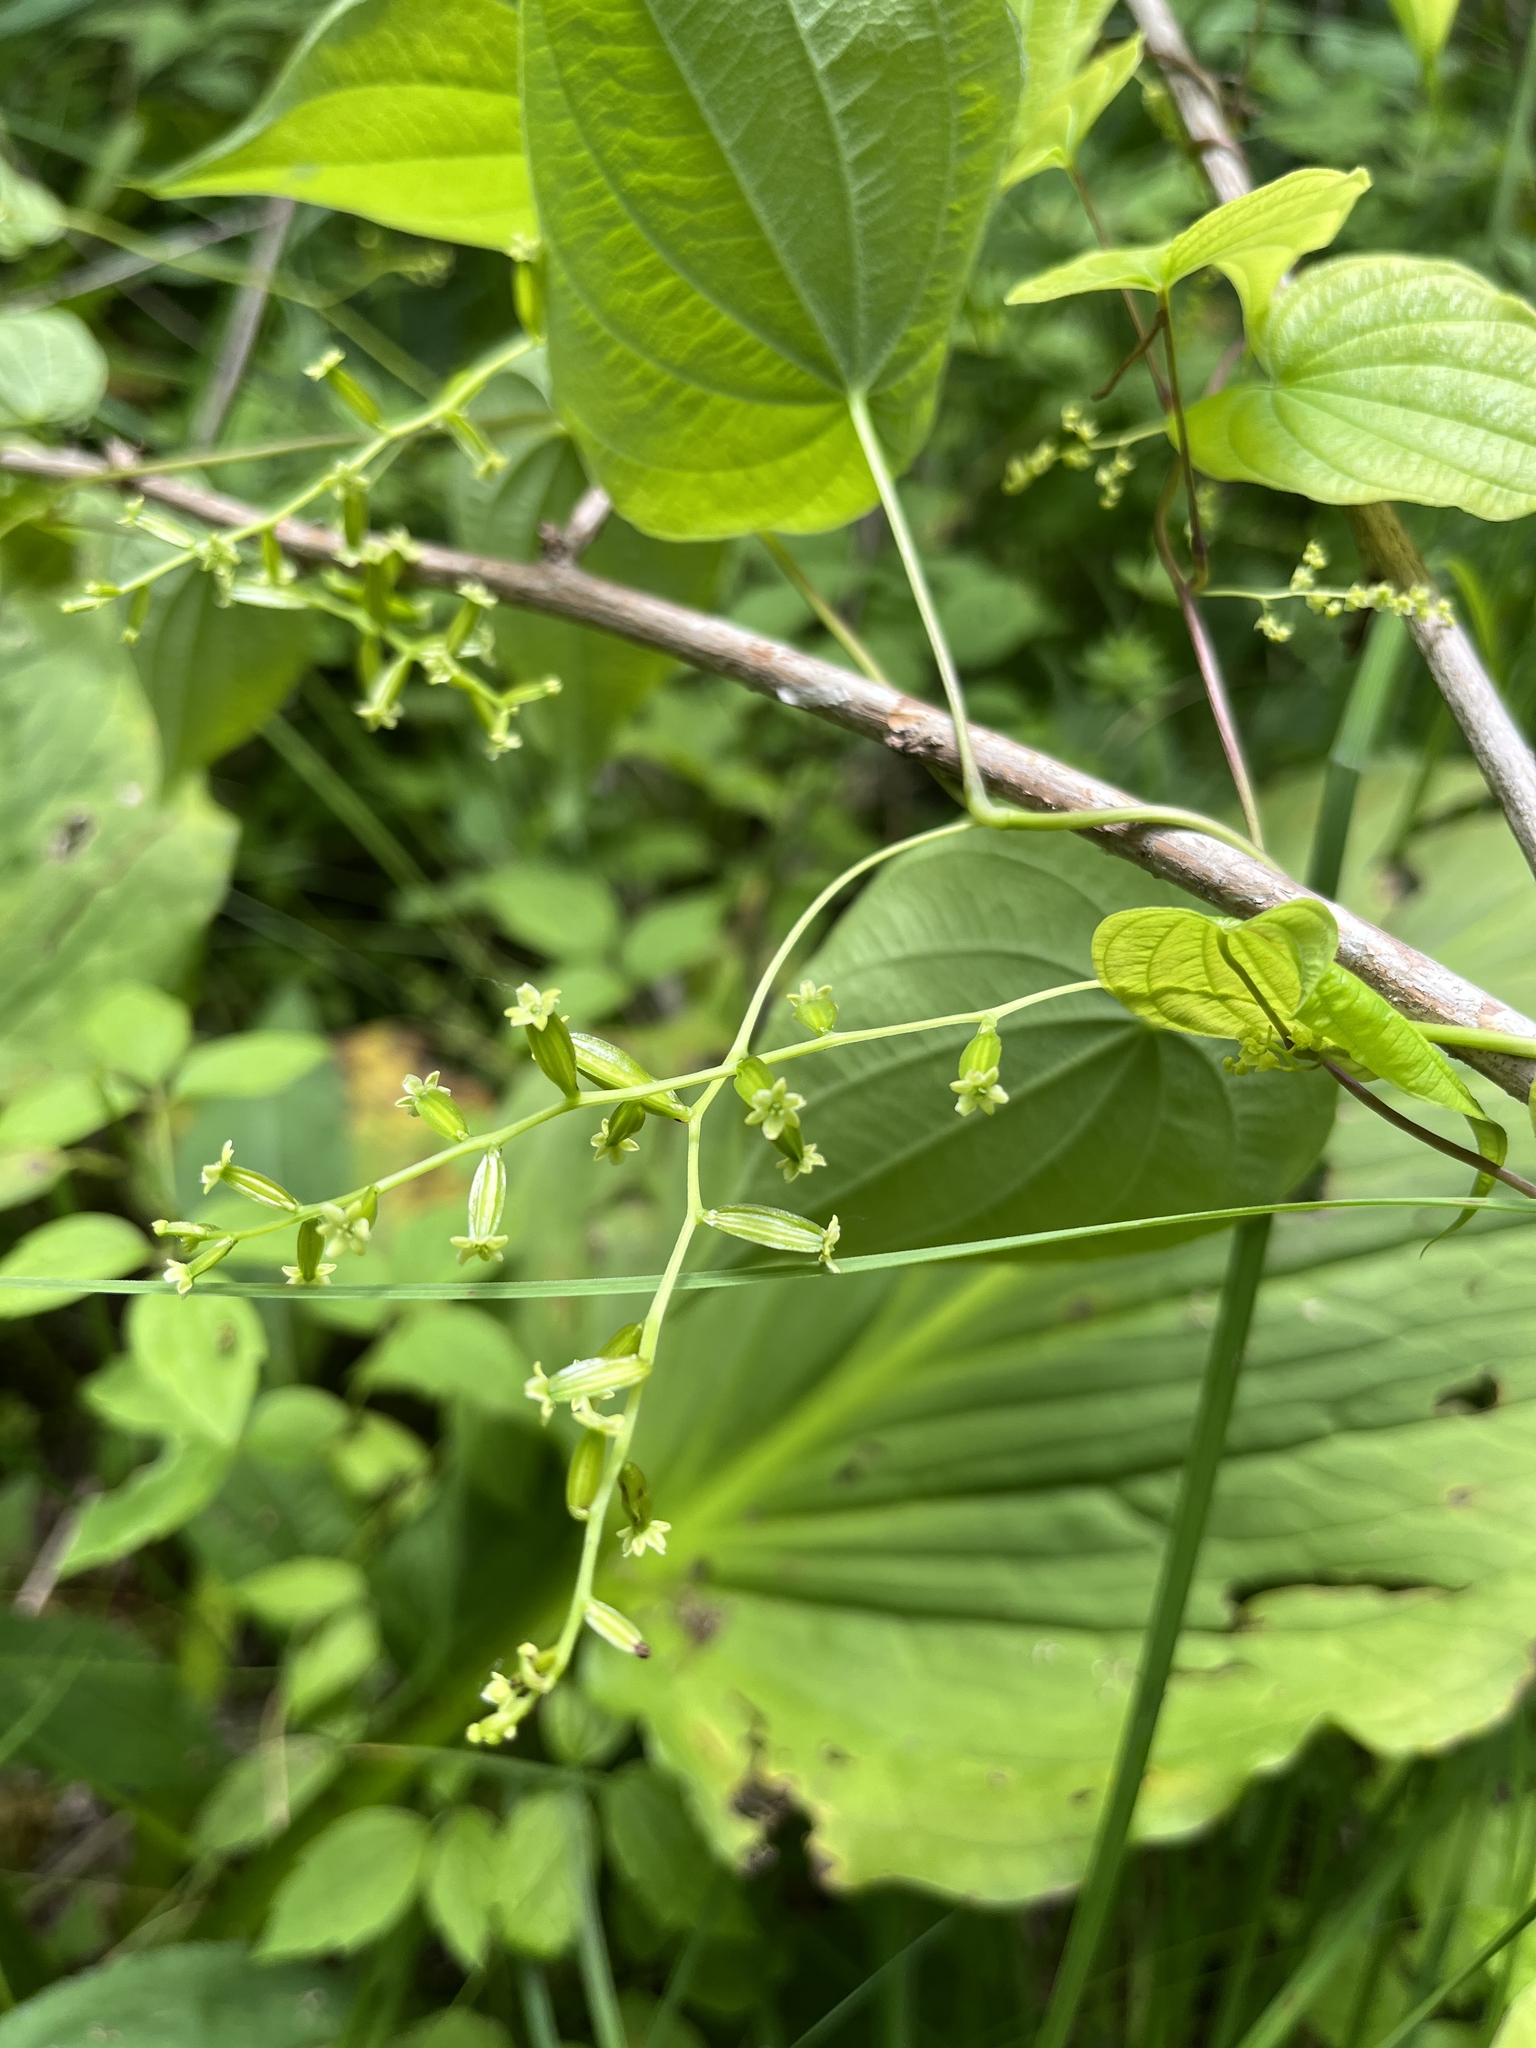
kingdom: Plantae
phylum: Tracheophyta
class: Liliopsida
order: Dioscoreales
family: Dioscoreaceae
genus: Dioscorea
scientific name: Dioscorea villosa
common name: Wild yam
